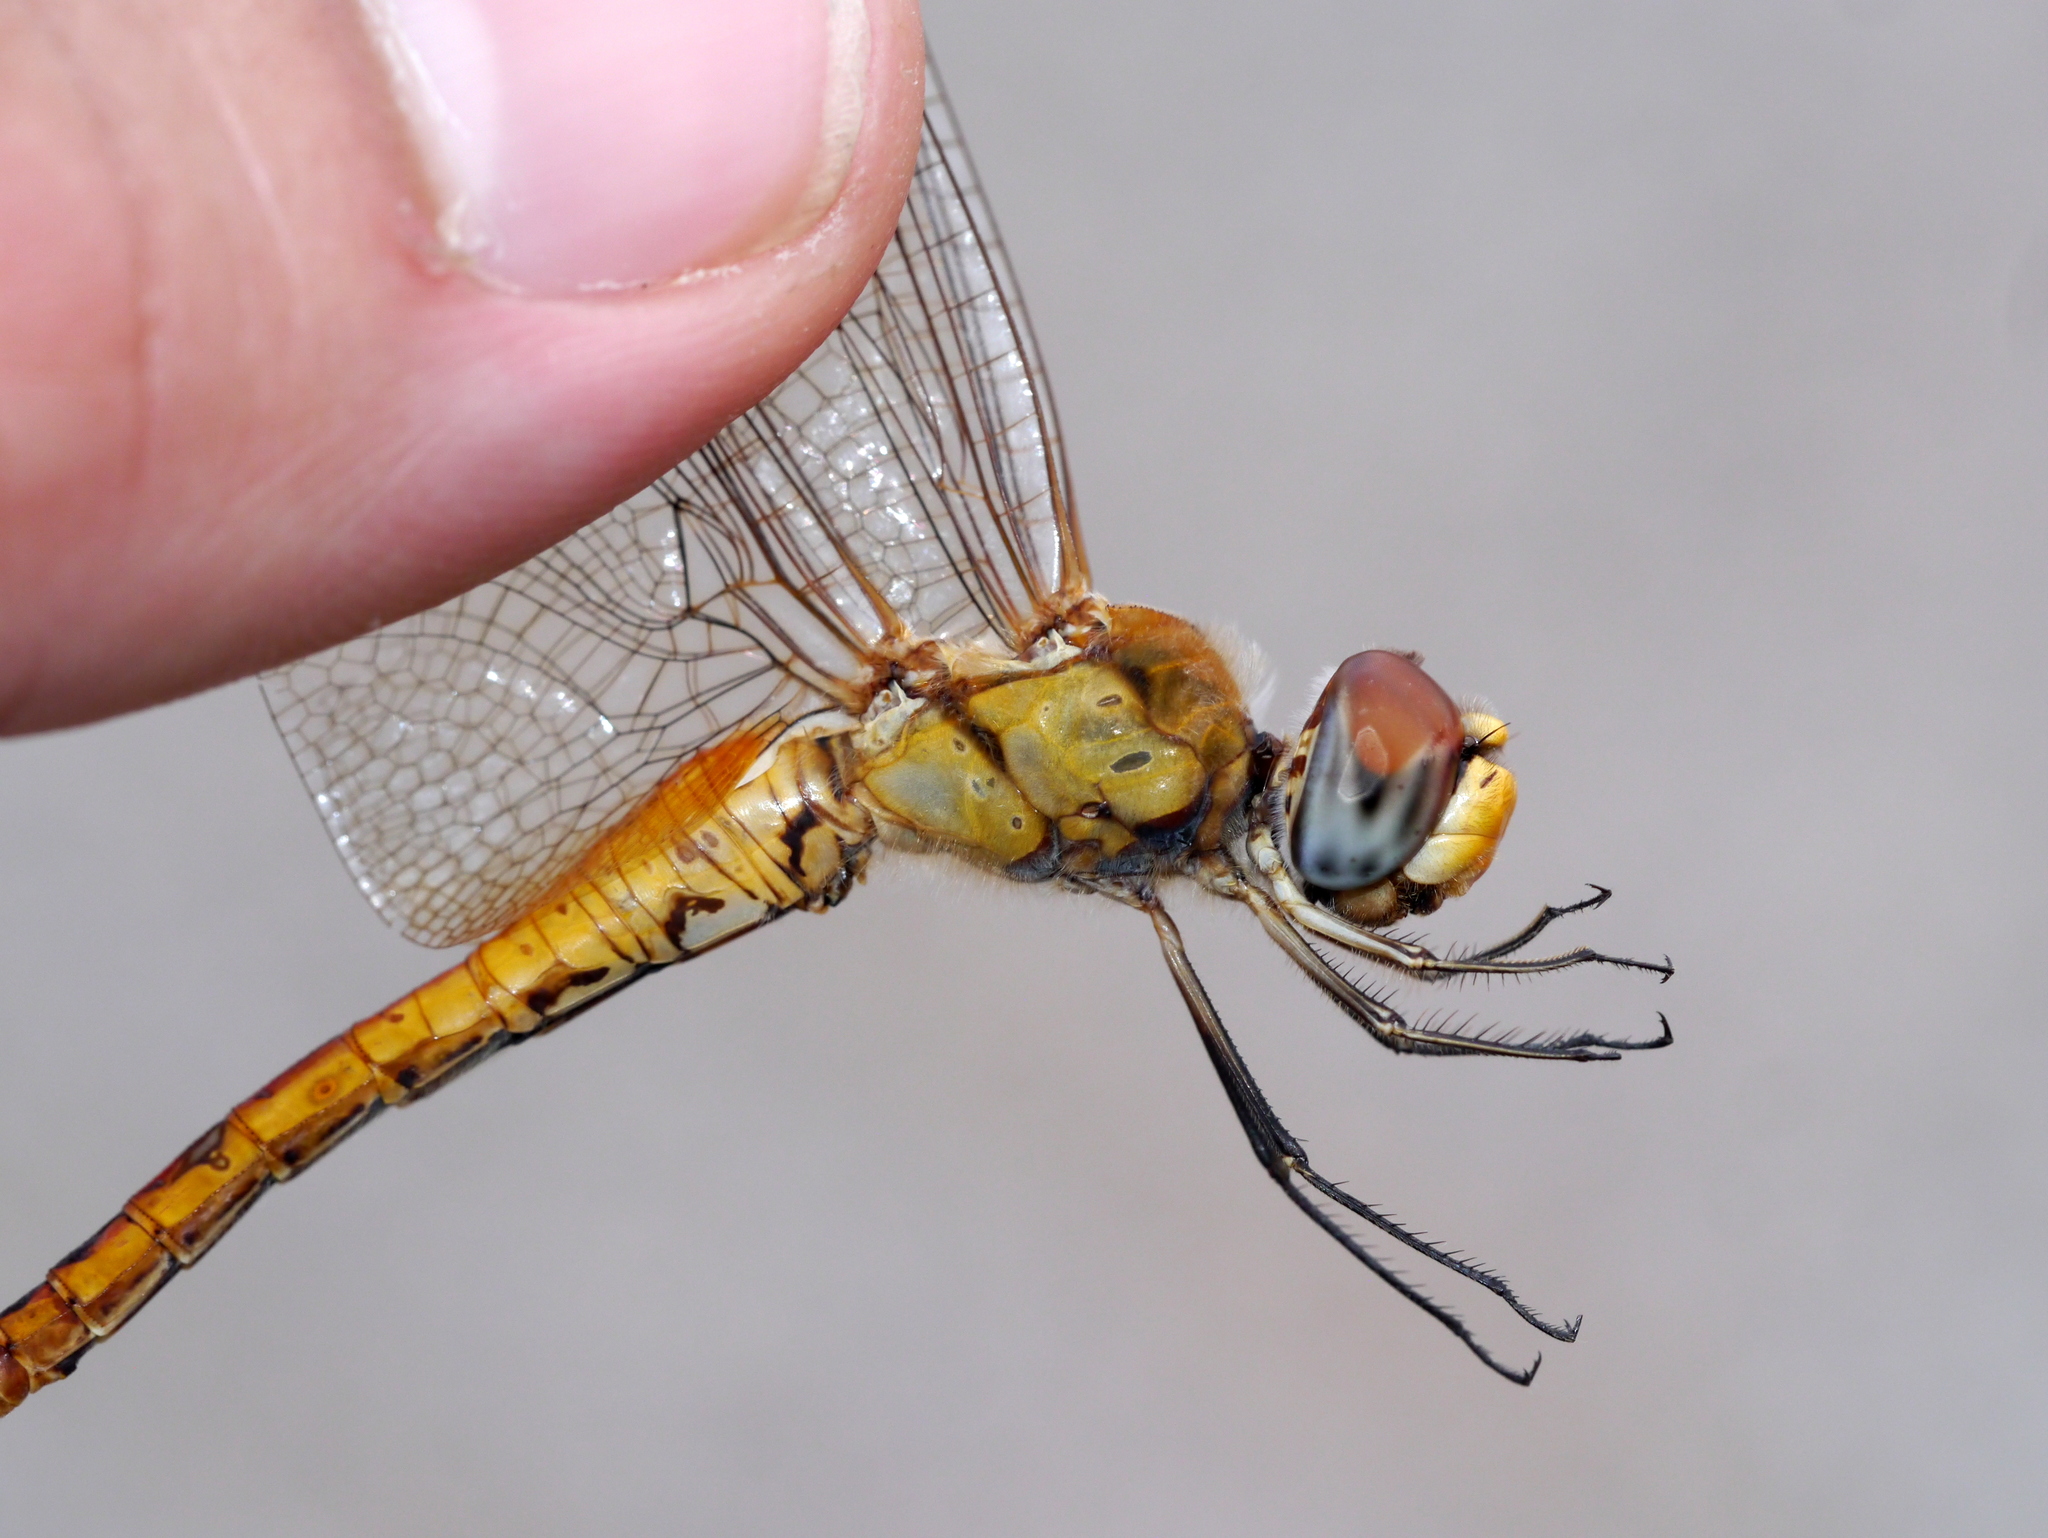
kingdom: Animalia
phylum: Arthropoda
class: Insecta
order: Odonata
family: Libellulidae
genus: Pantala
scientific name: Pantala flavescens
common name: Wandering glider
